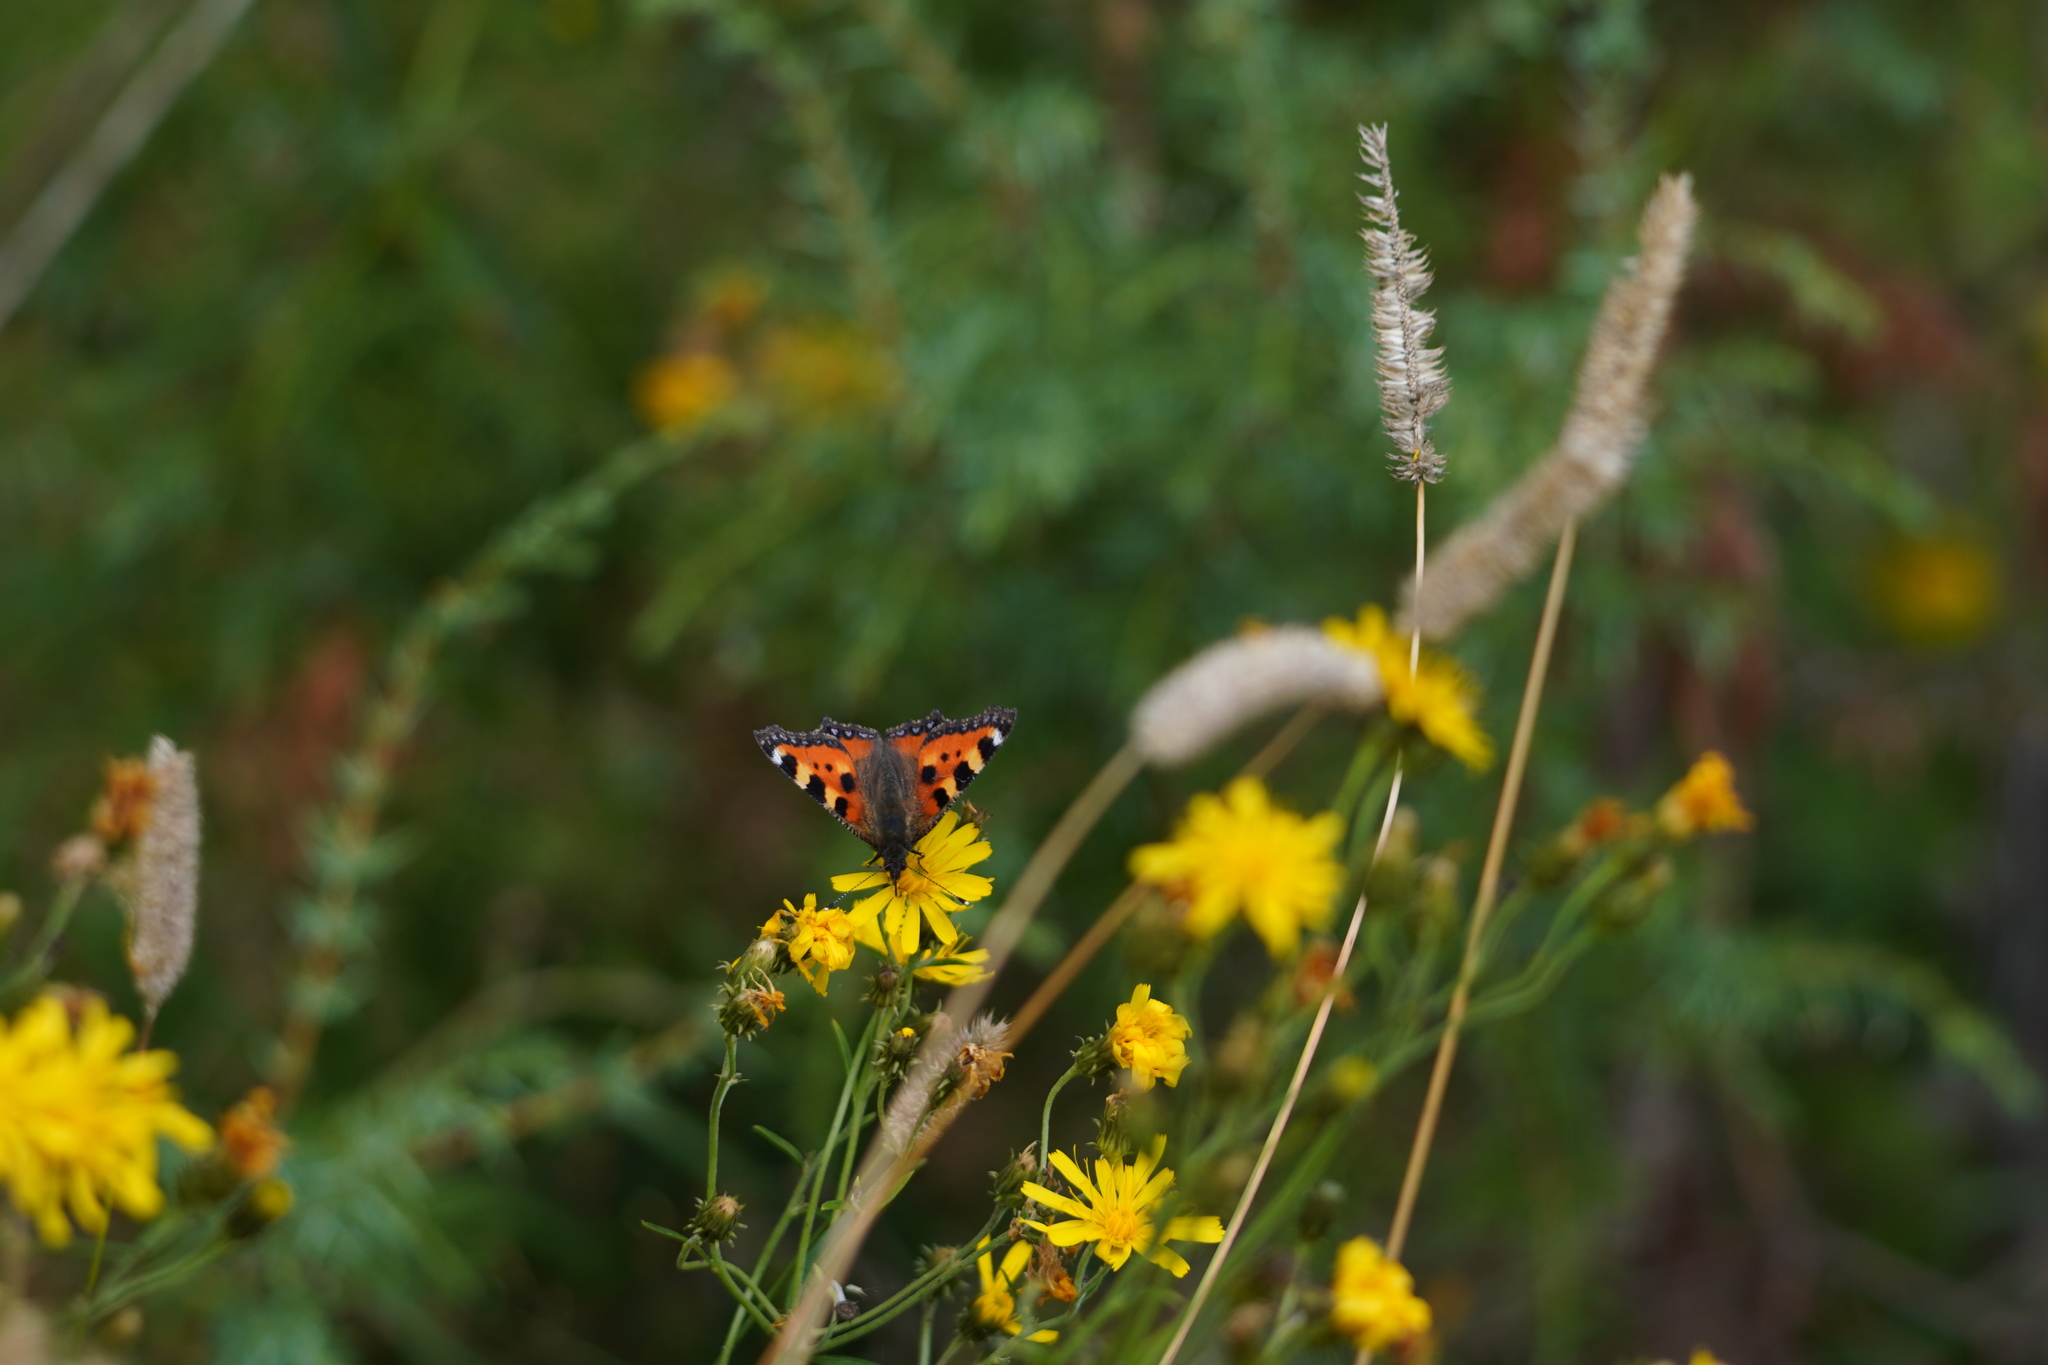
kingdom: Animalia
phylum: Arthropoda
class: Insecta
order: Lepidoptera
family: Nymphalidae
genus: Aglais
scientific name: Aglais urticae
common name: Small tortoiseshell
